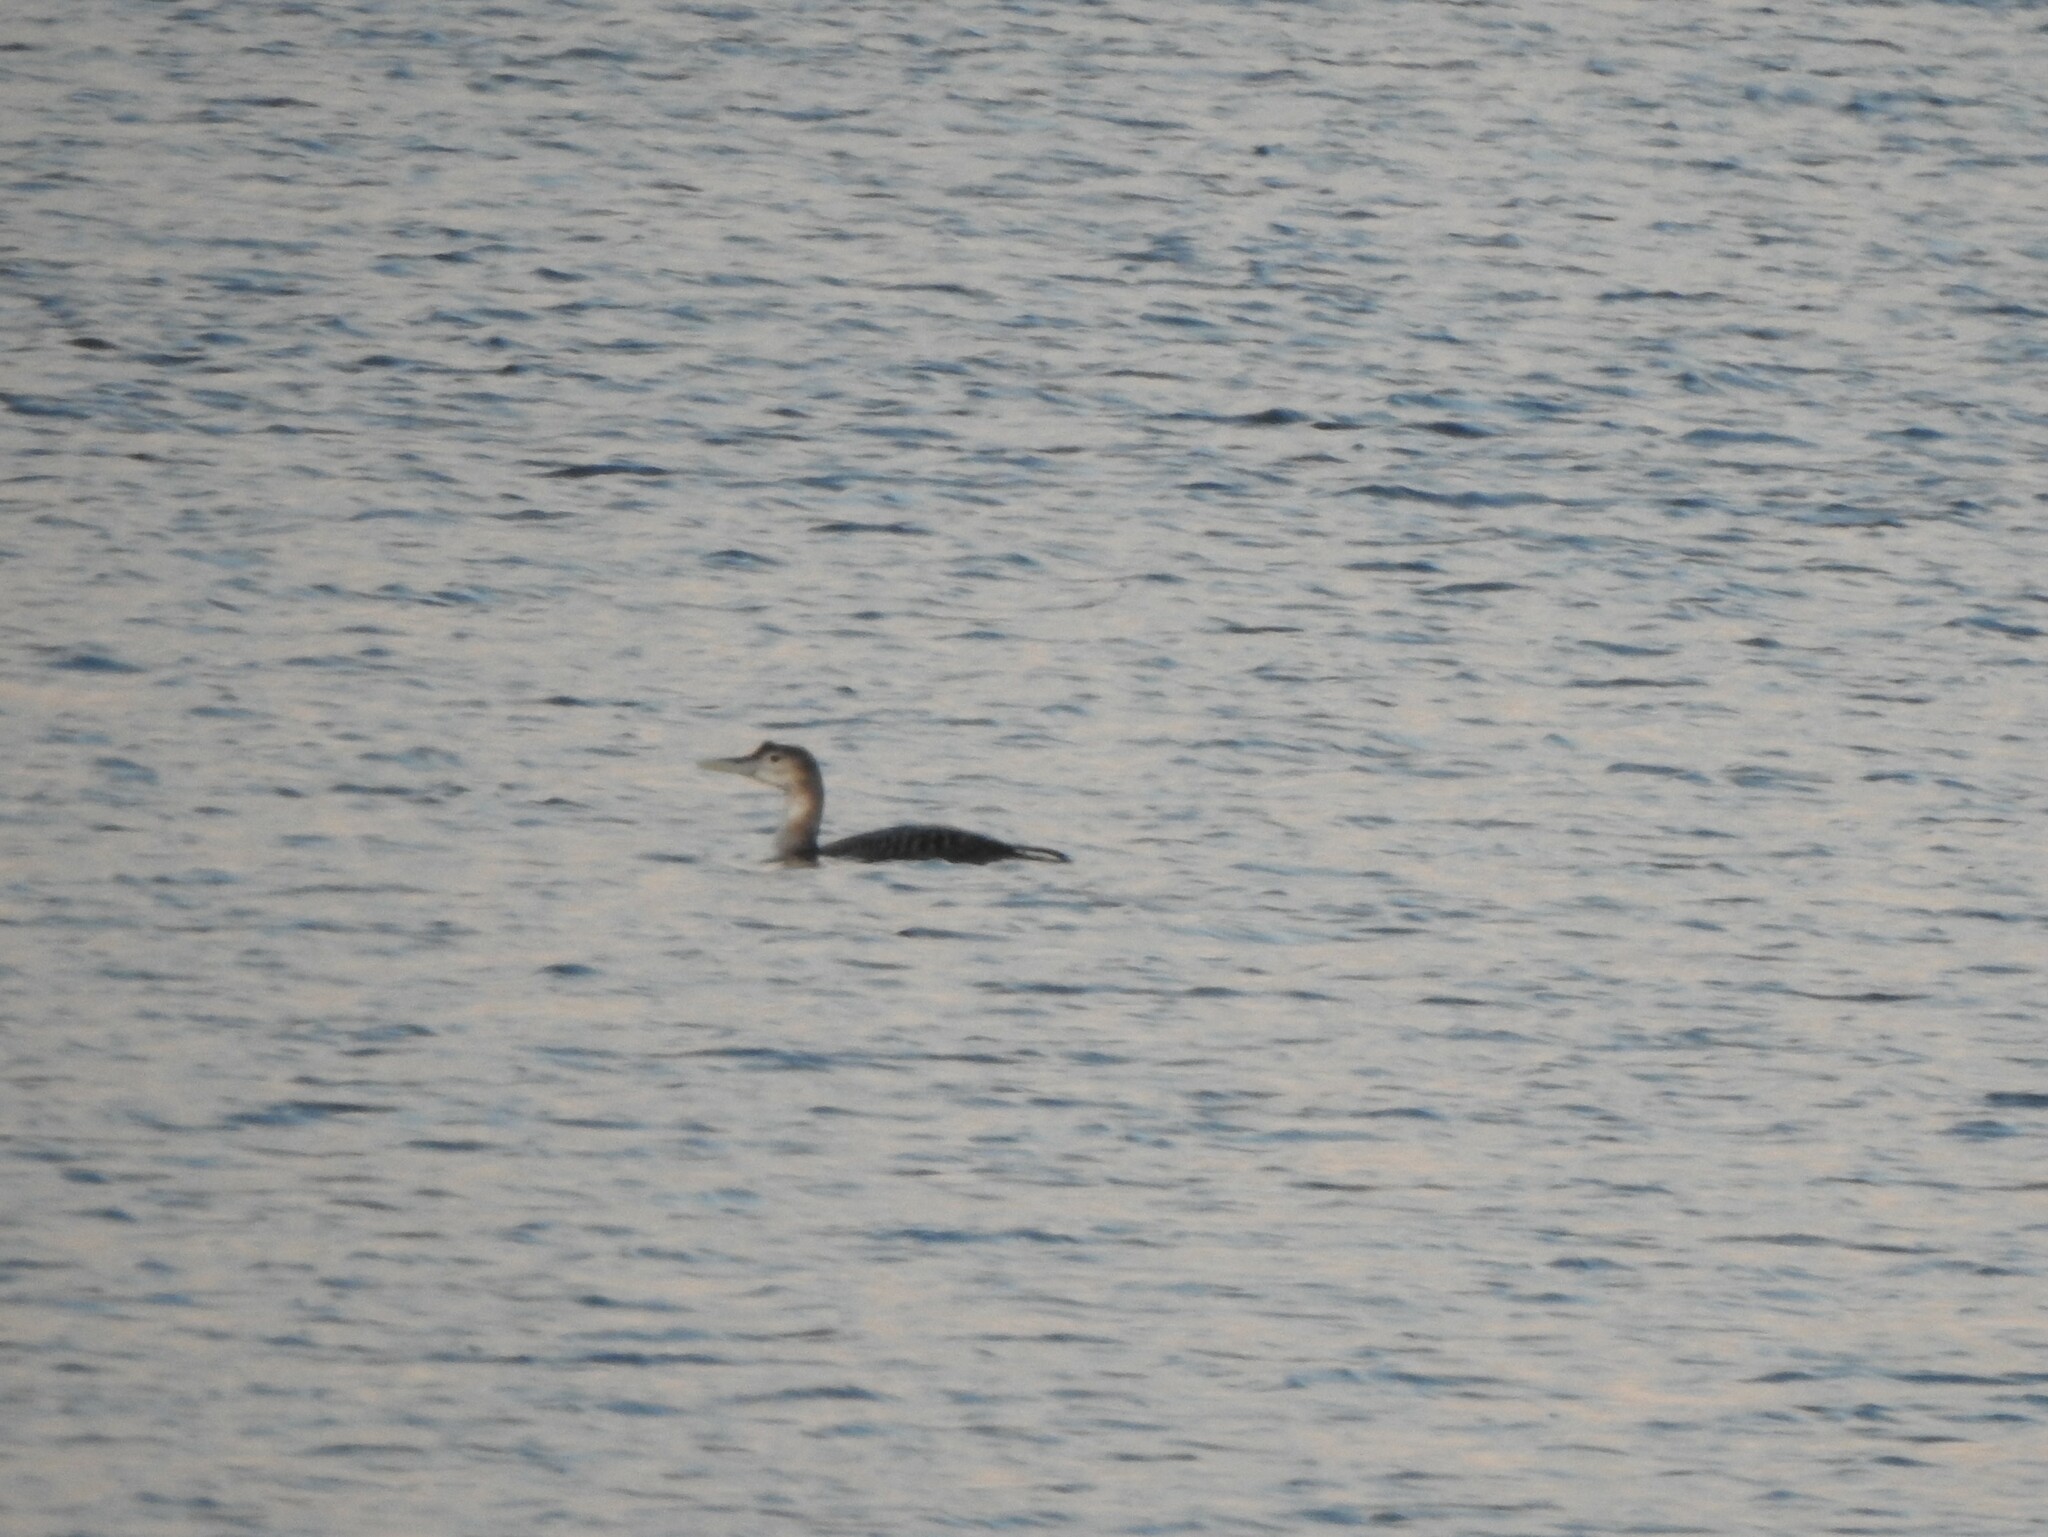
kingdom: Animalia
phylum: Chordata
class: Aves
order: Gaviiformes
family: Gaviidae
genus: Gavia
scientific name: Gavia adamsii
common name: Yellow-billed loon
